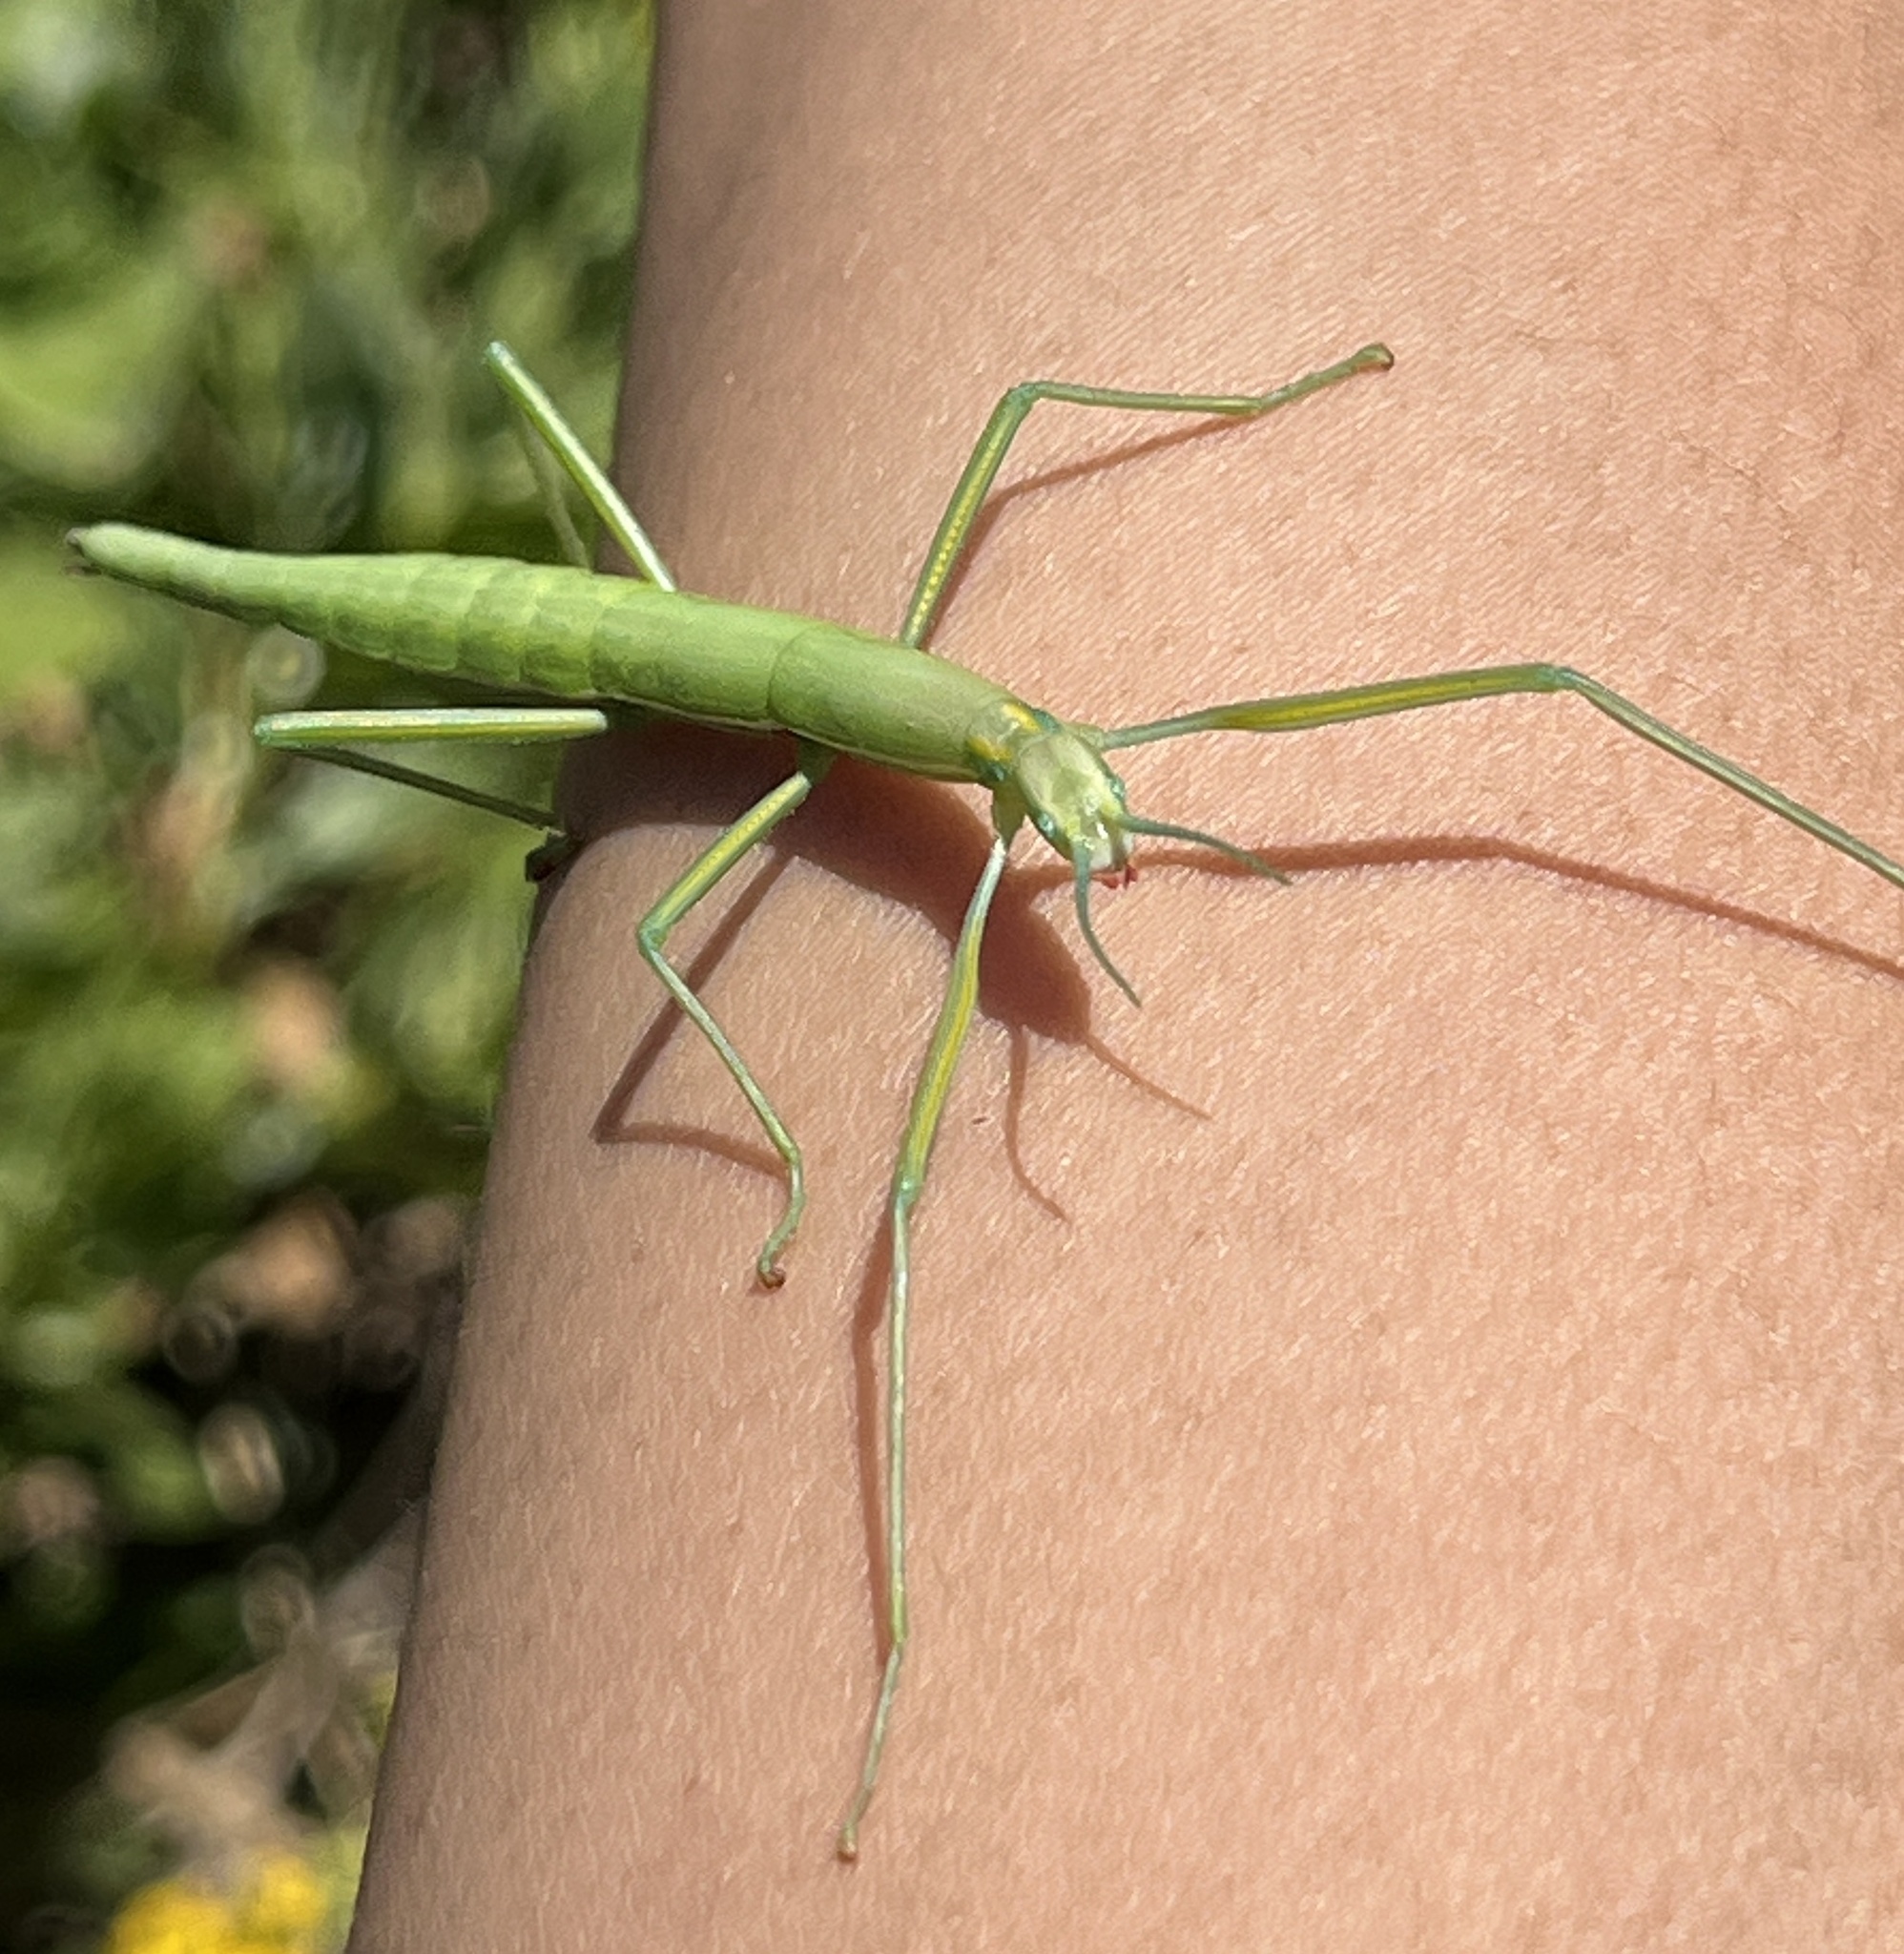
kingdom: Animalia
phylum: Arthropoda
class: Insecta
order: Phasmida
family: Bacillidae
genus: Macynia
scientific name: Macynia labiata
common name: Thunberg's stick insect
